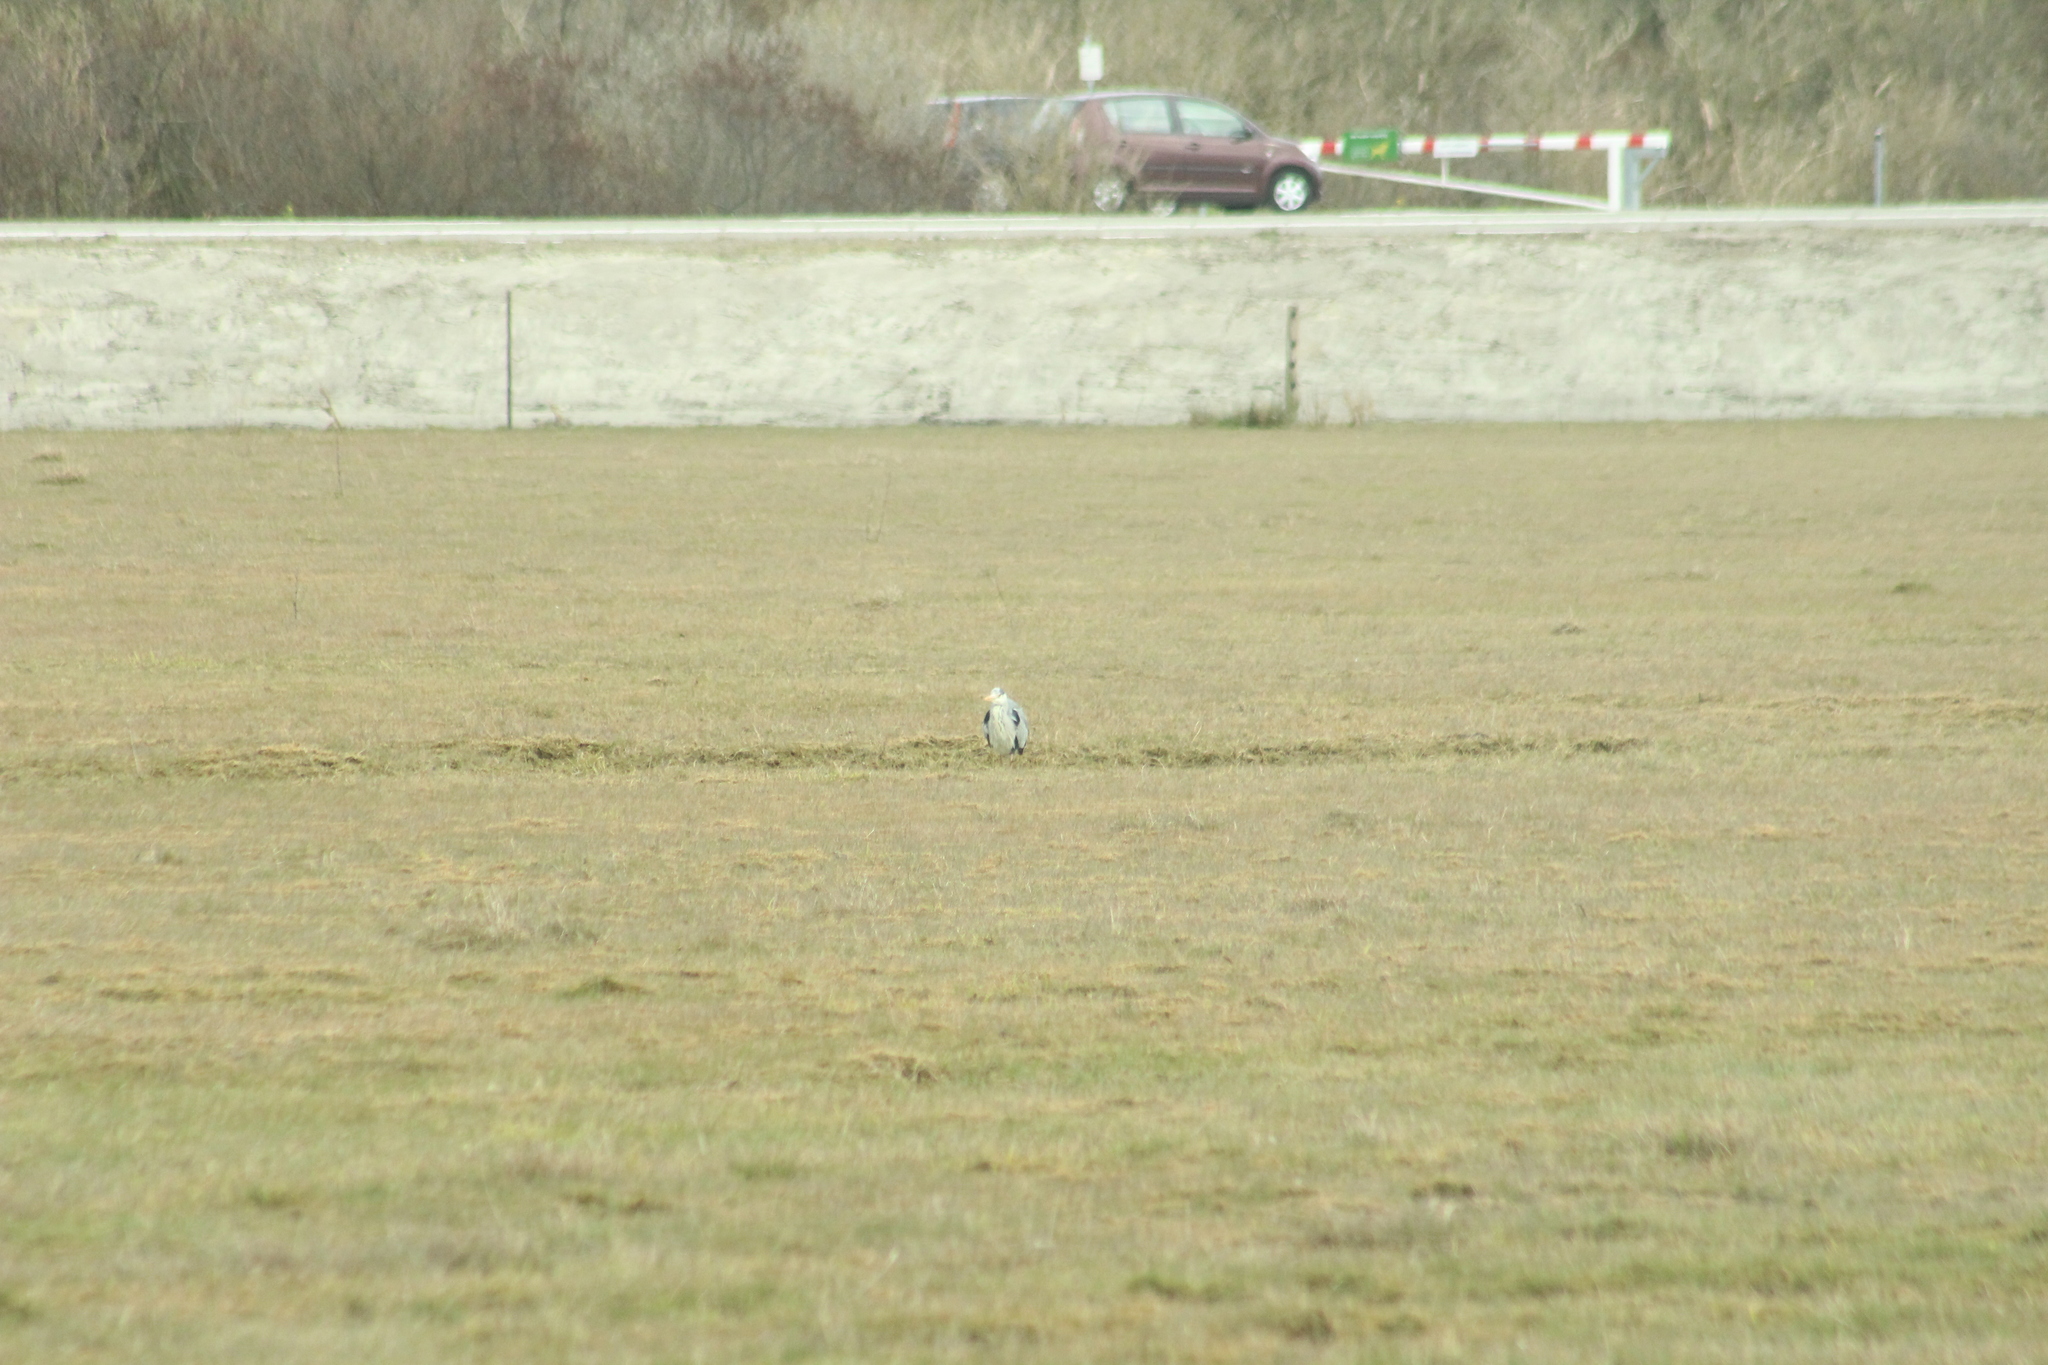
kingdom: Animalia
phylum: Chordata
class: Aves
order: Pelecaniformes
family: Ardeidae
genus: Ardea
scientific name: Ardea cinerea
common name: Grey heron
